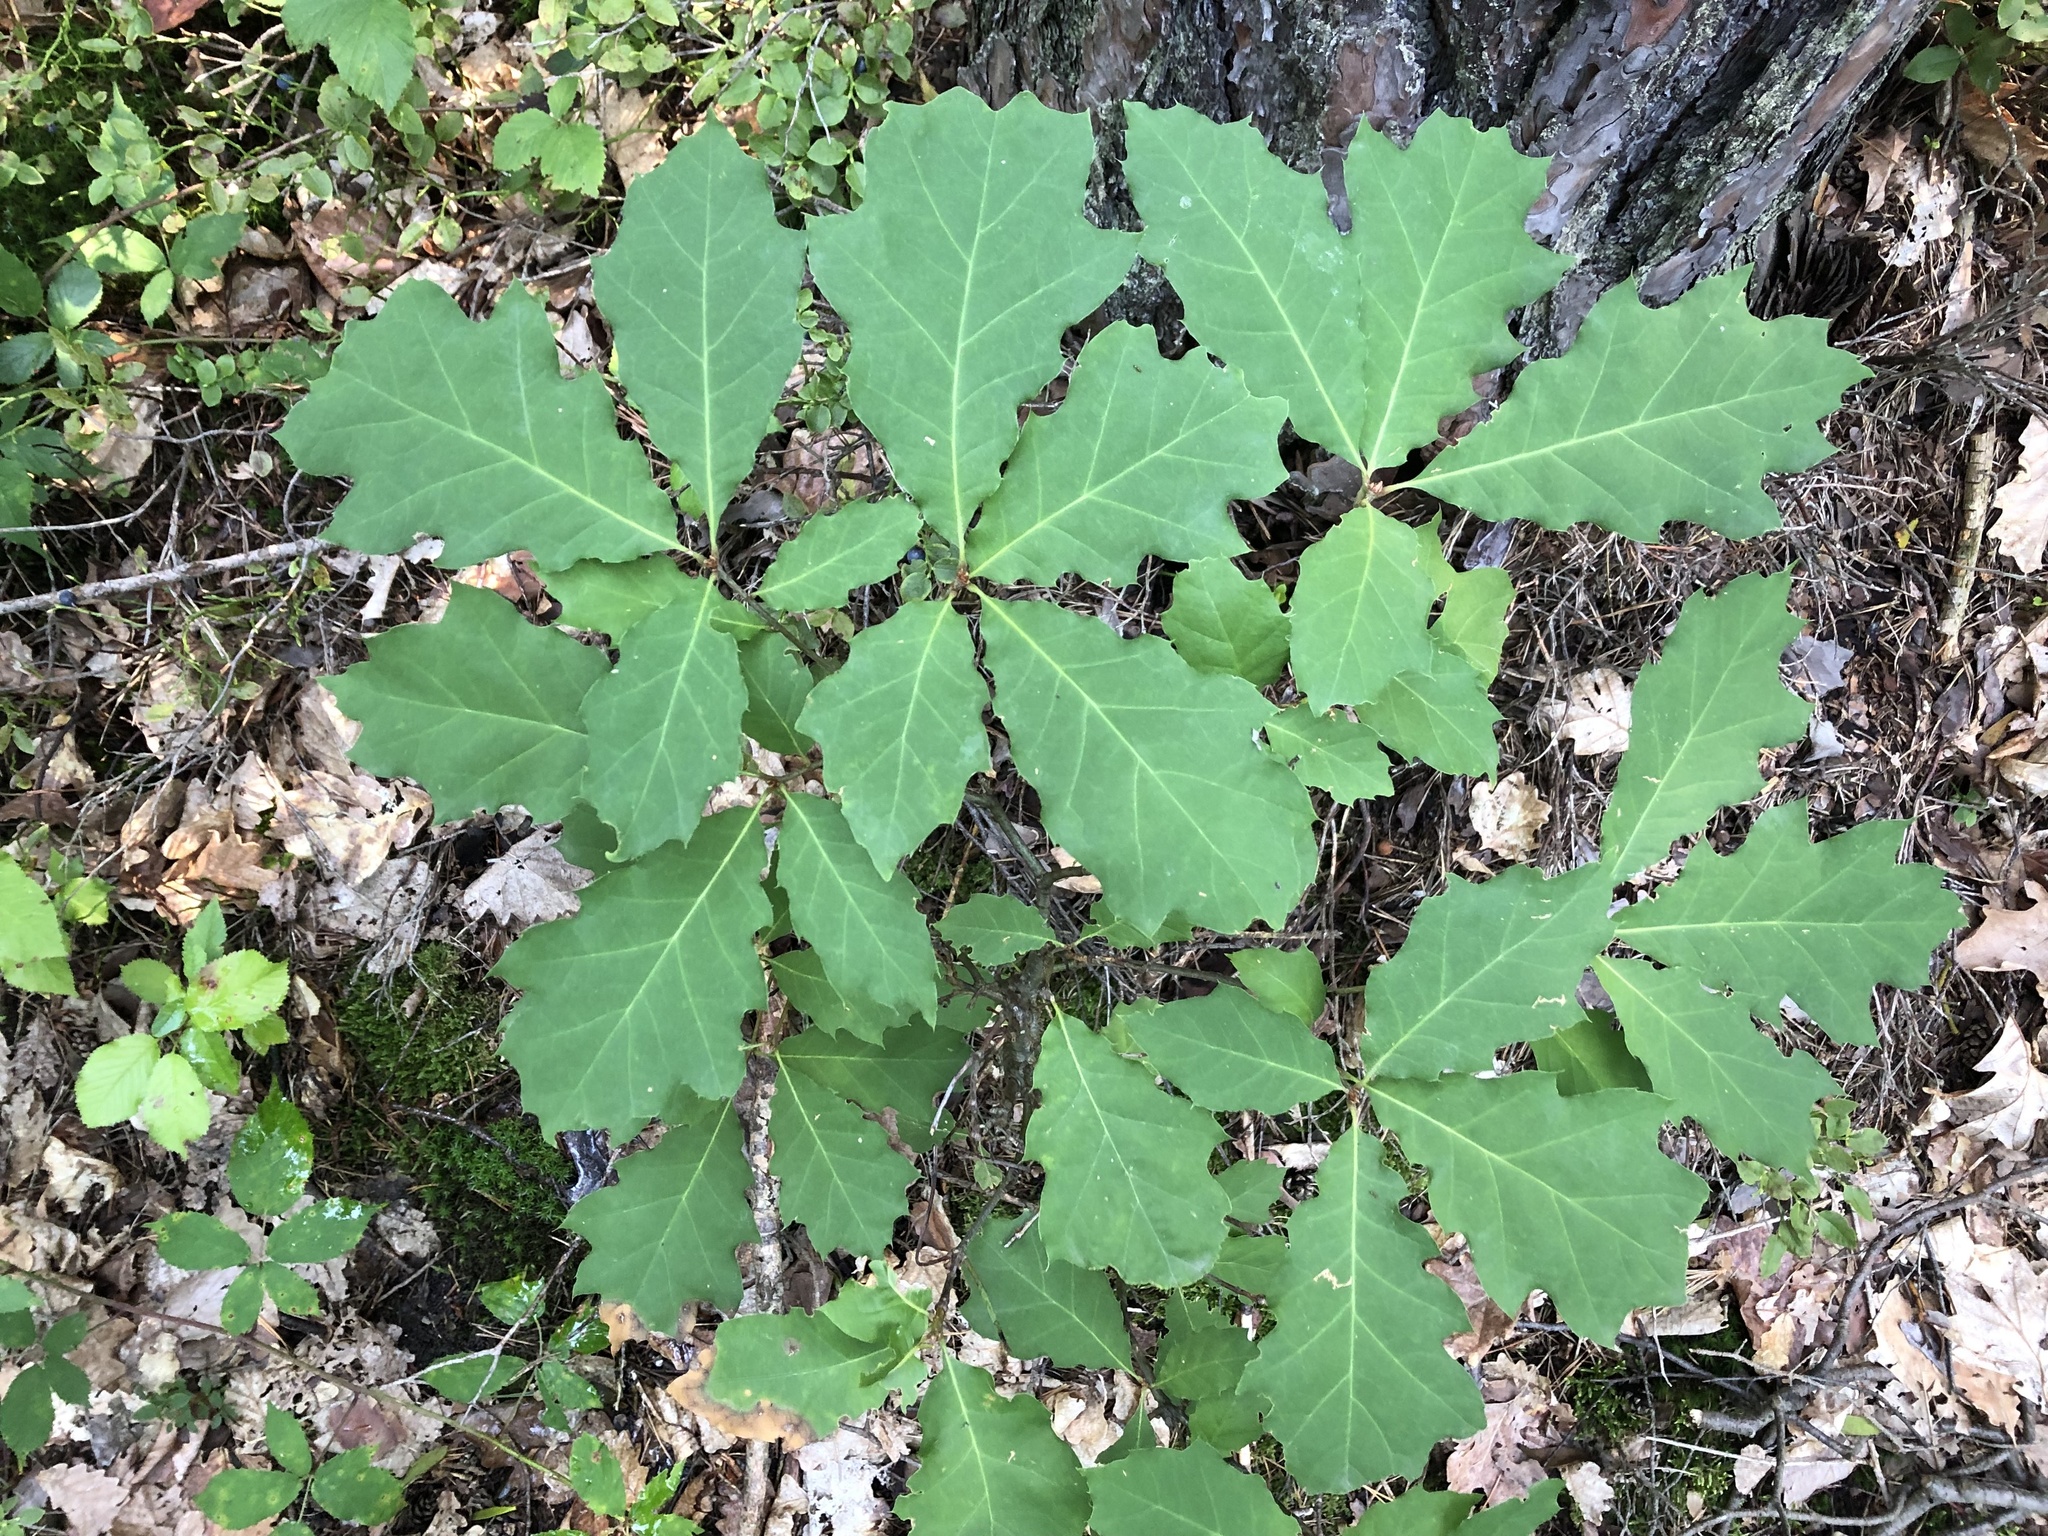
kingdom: Plantae
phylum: Tracheophyta
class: Magnoliopsida
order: Fagales
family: Fagaceae
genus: Quercus
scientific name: Quercus rubra
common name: Red oak
